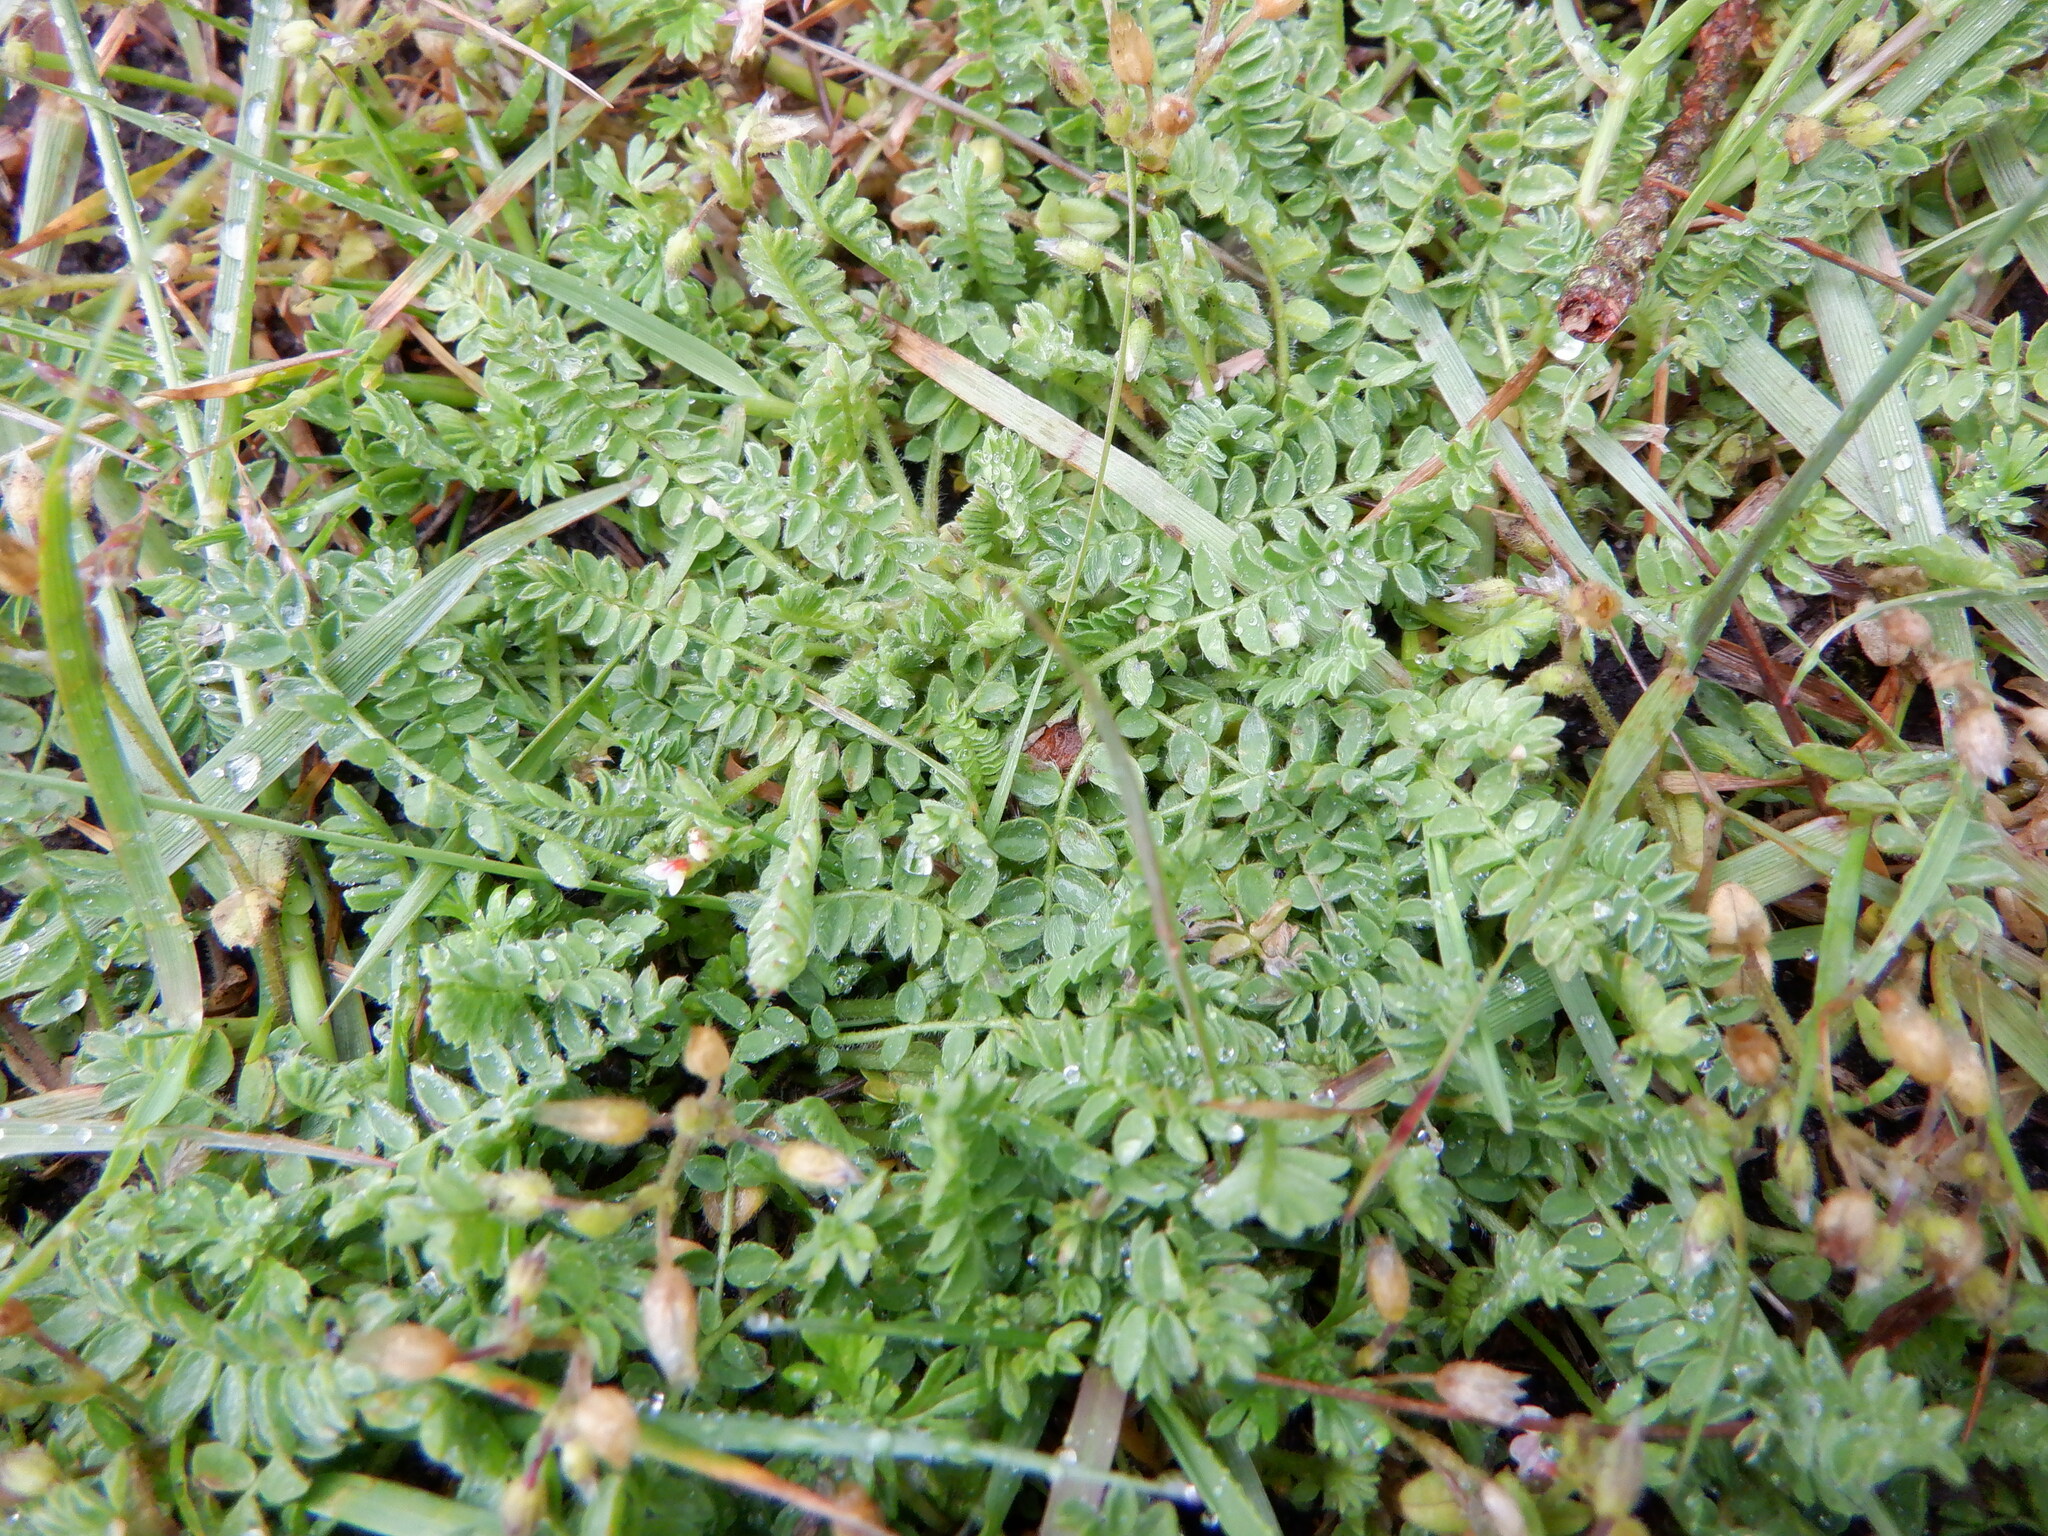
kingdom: Plantae
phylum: Tracheophyta
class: Magnoliopsida
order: Fabales
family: Fabaceae
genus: Ornithopus
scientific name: Ornithopus perpusillus
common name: Bird's-foot
